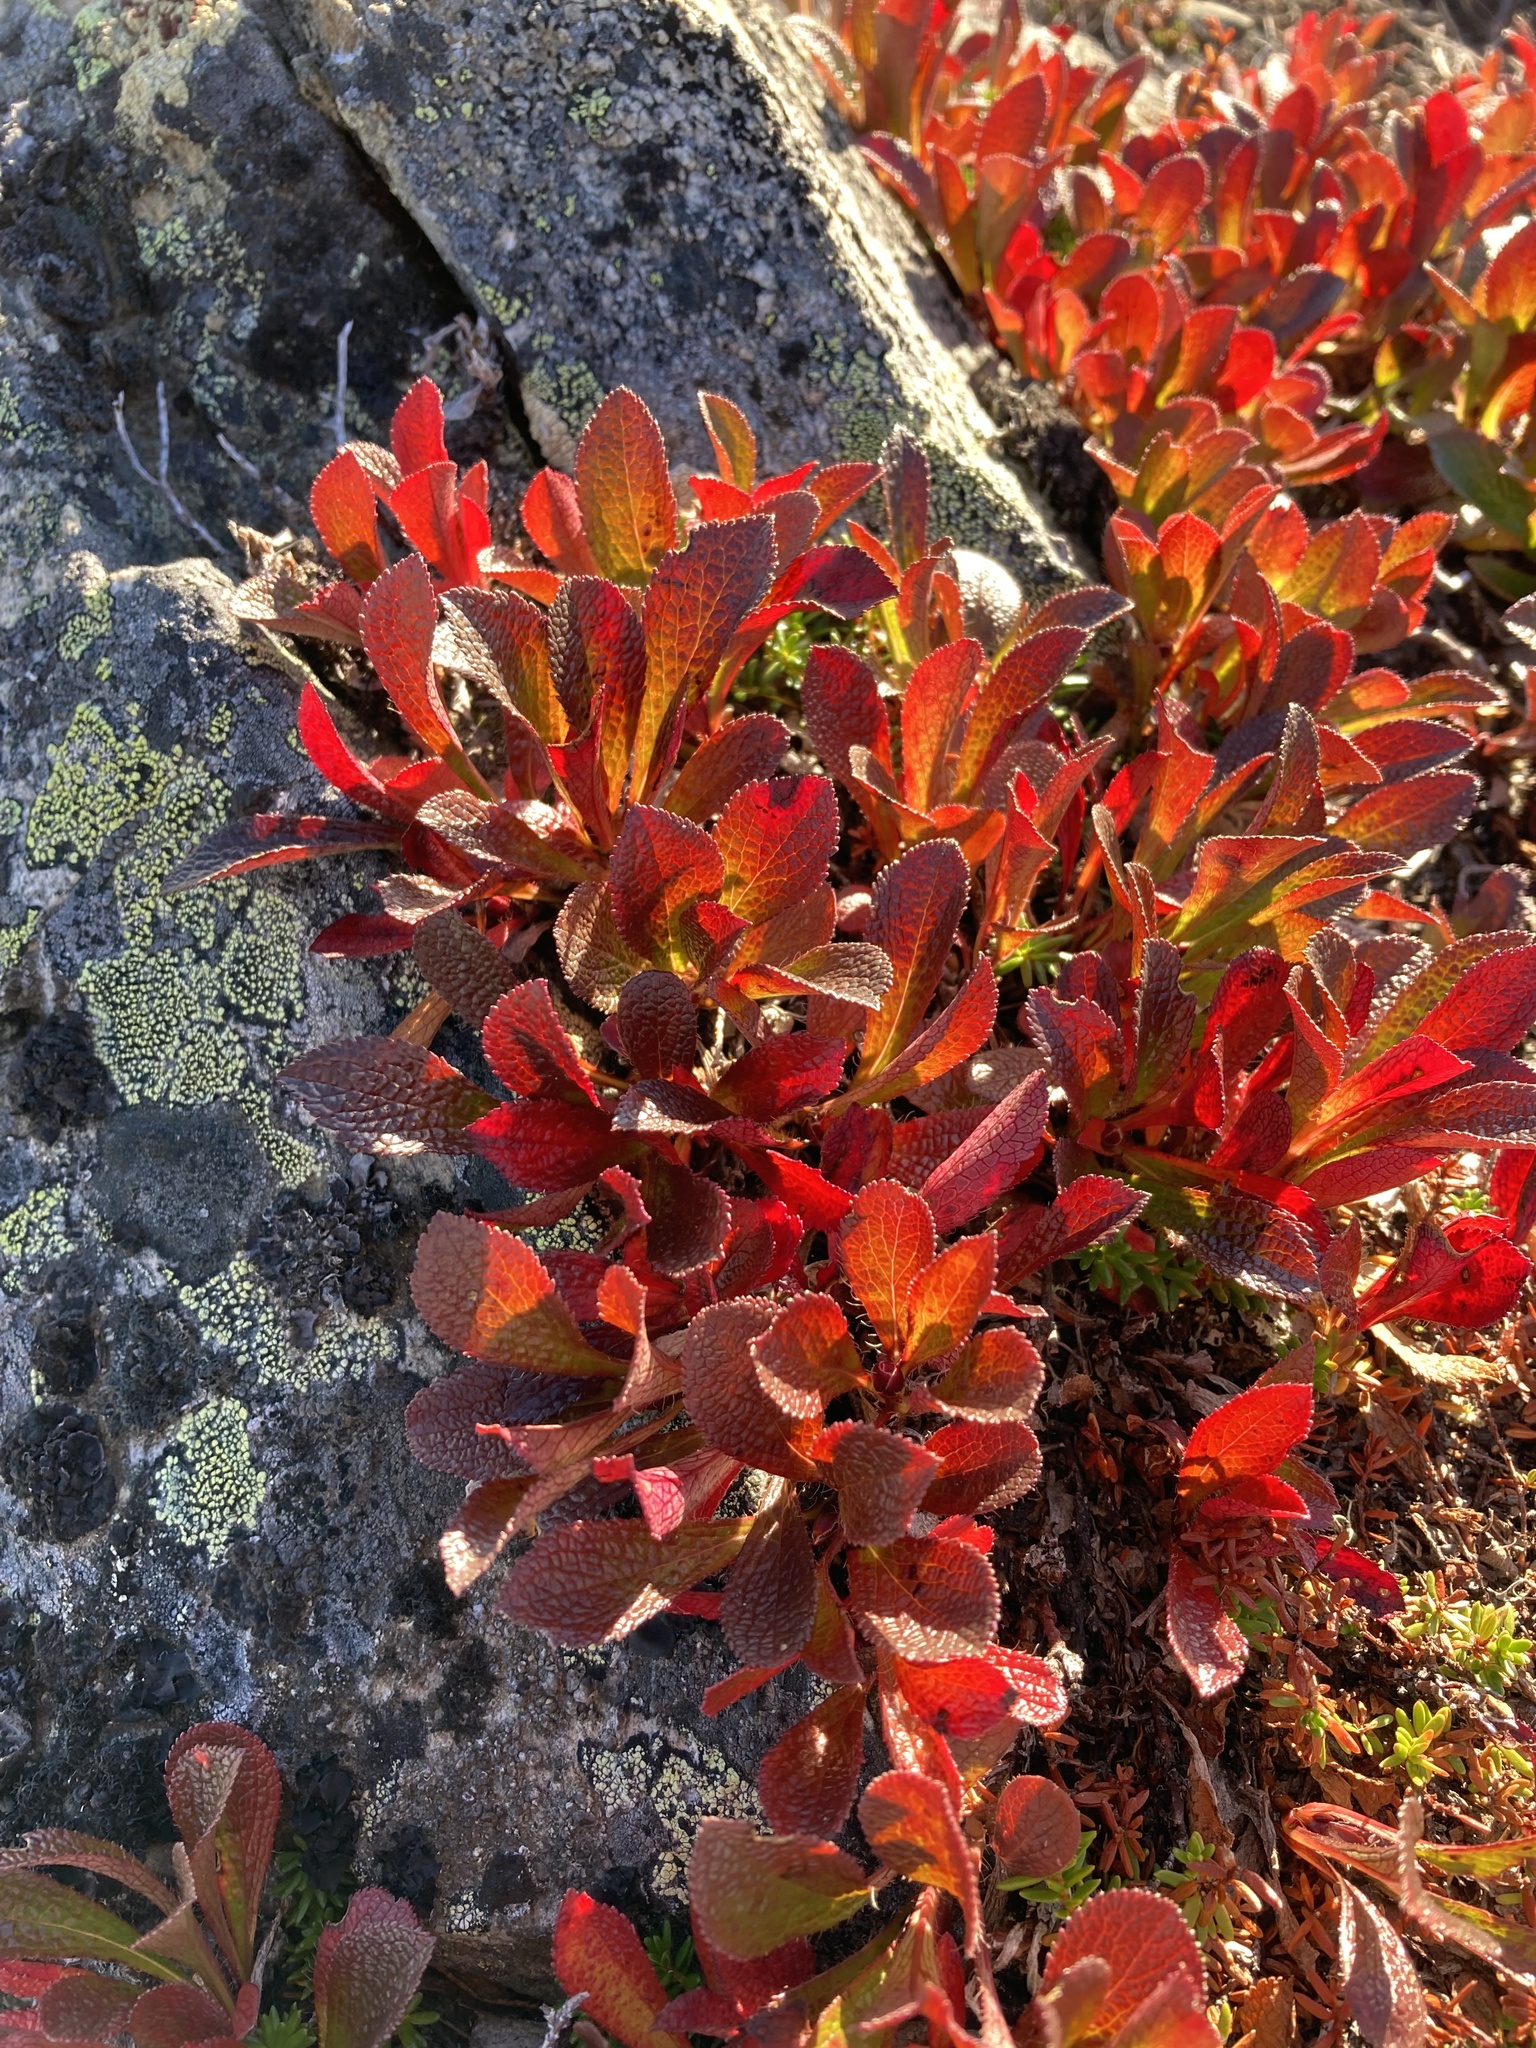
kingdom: Plantae
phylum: Tracheophyta
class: Magnoliopsida
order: Ericales
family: Ericaceae
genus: Arctostaphylos
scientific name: Arctostaphylos alpinus
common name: Alpine bearberry
